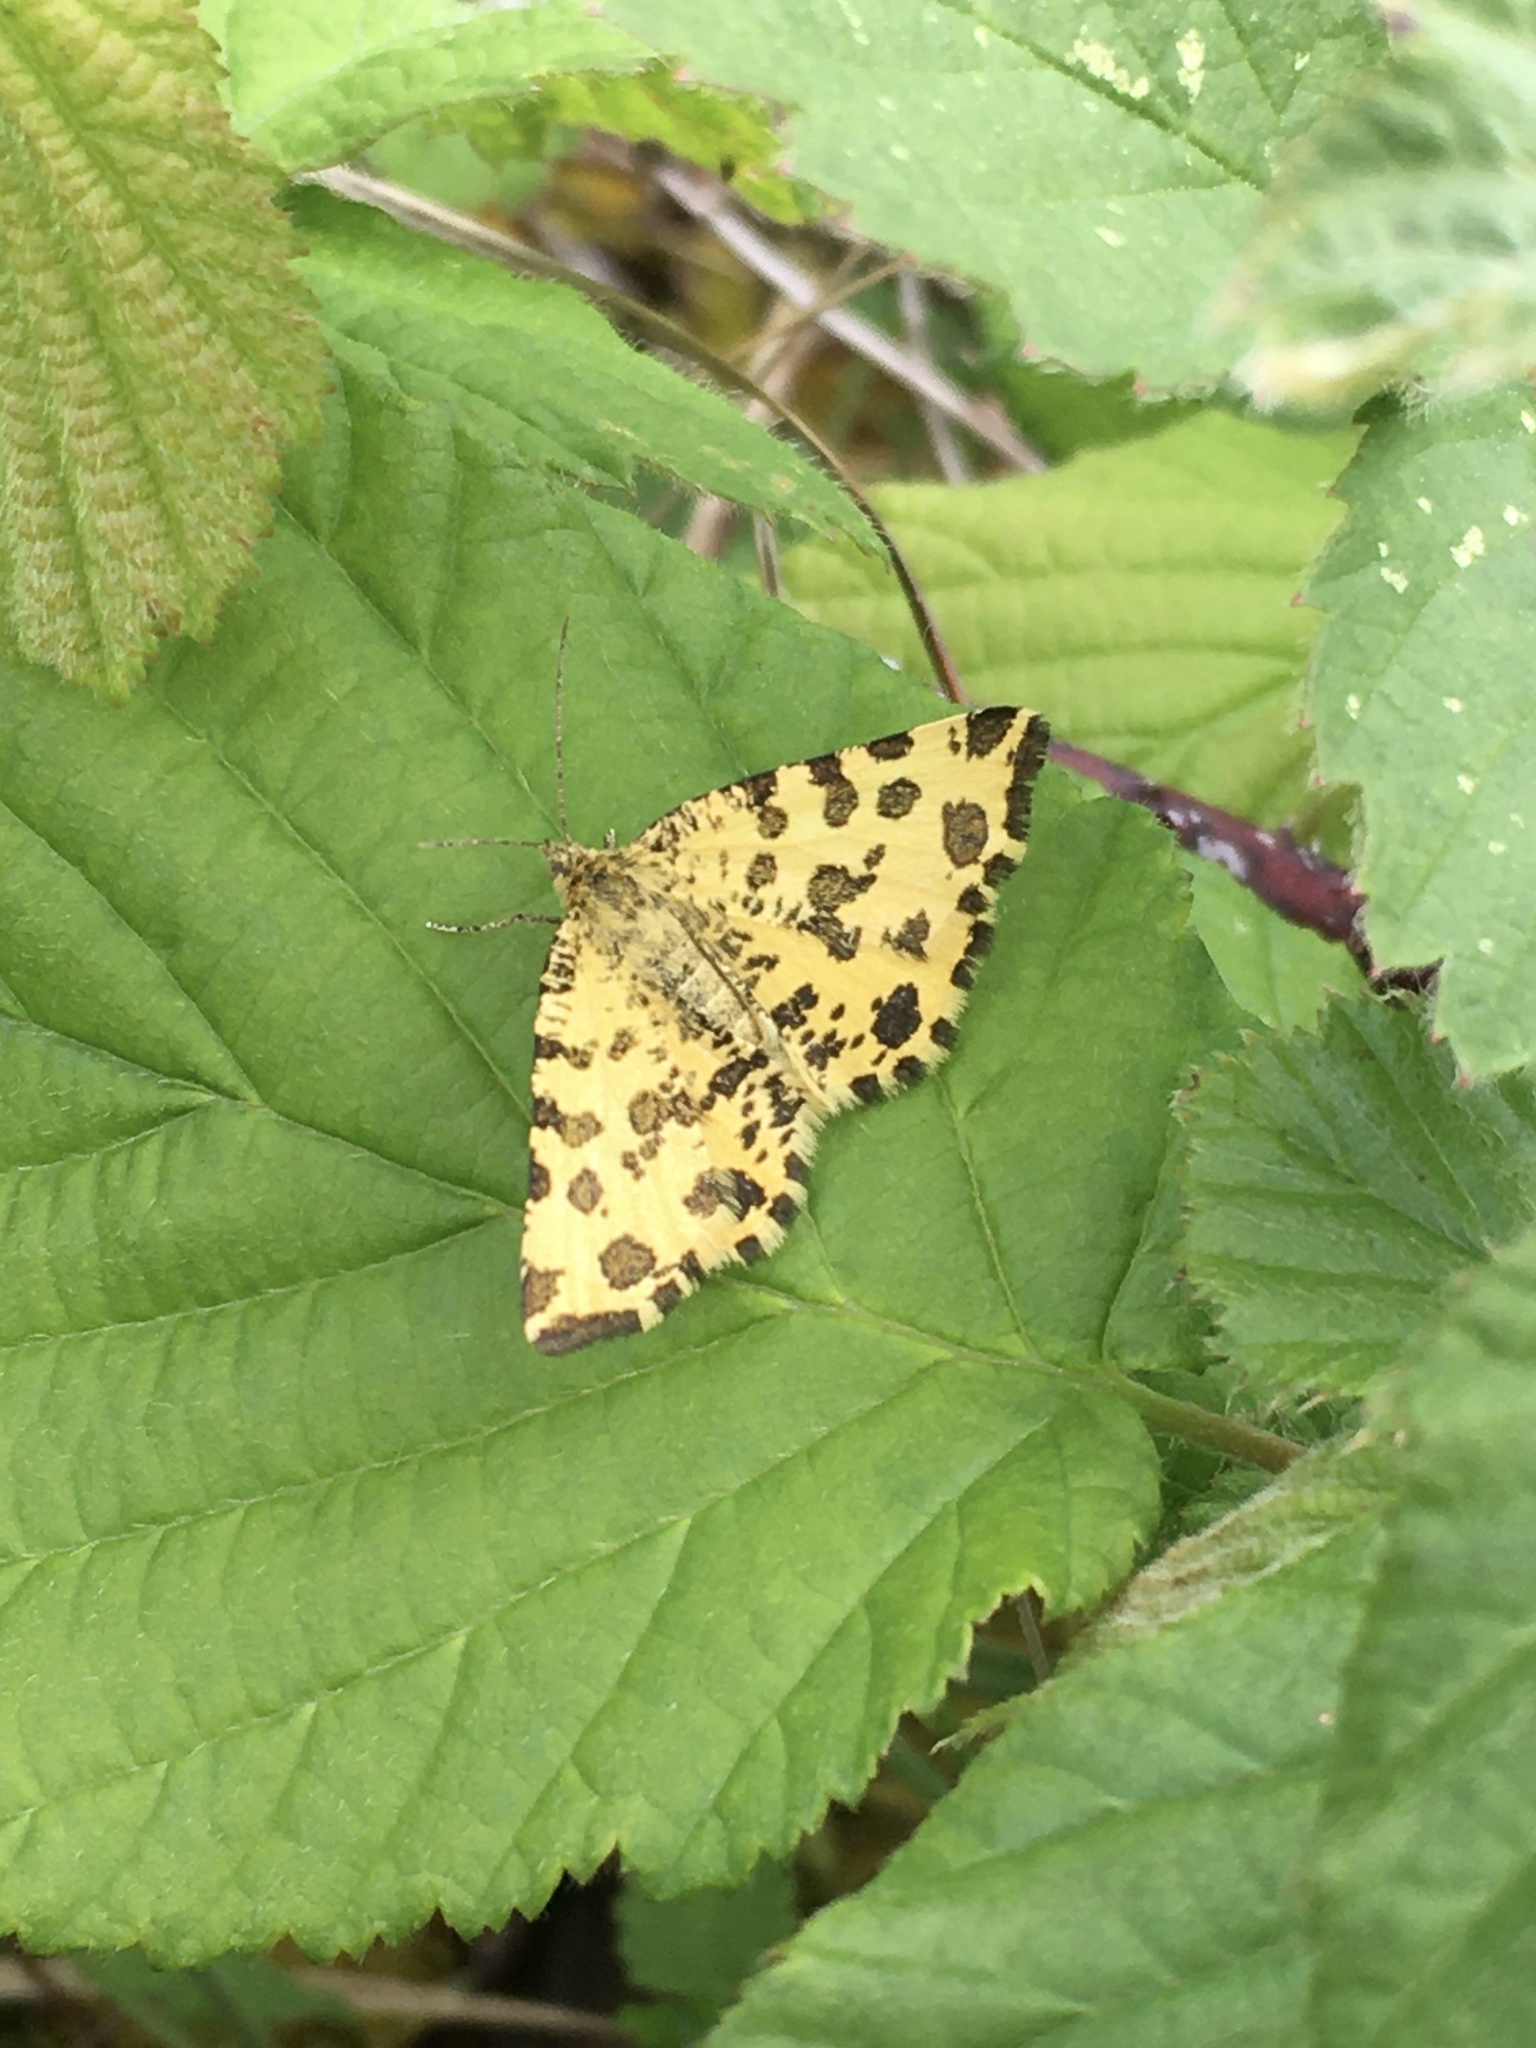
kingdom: Animalia
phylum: Arthropoda
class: Insecta
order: Lepidoptera
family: Geometridae
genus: Pseudopanthera
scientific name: Pseudopanthera macularia
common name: Speckled yellow
